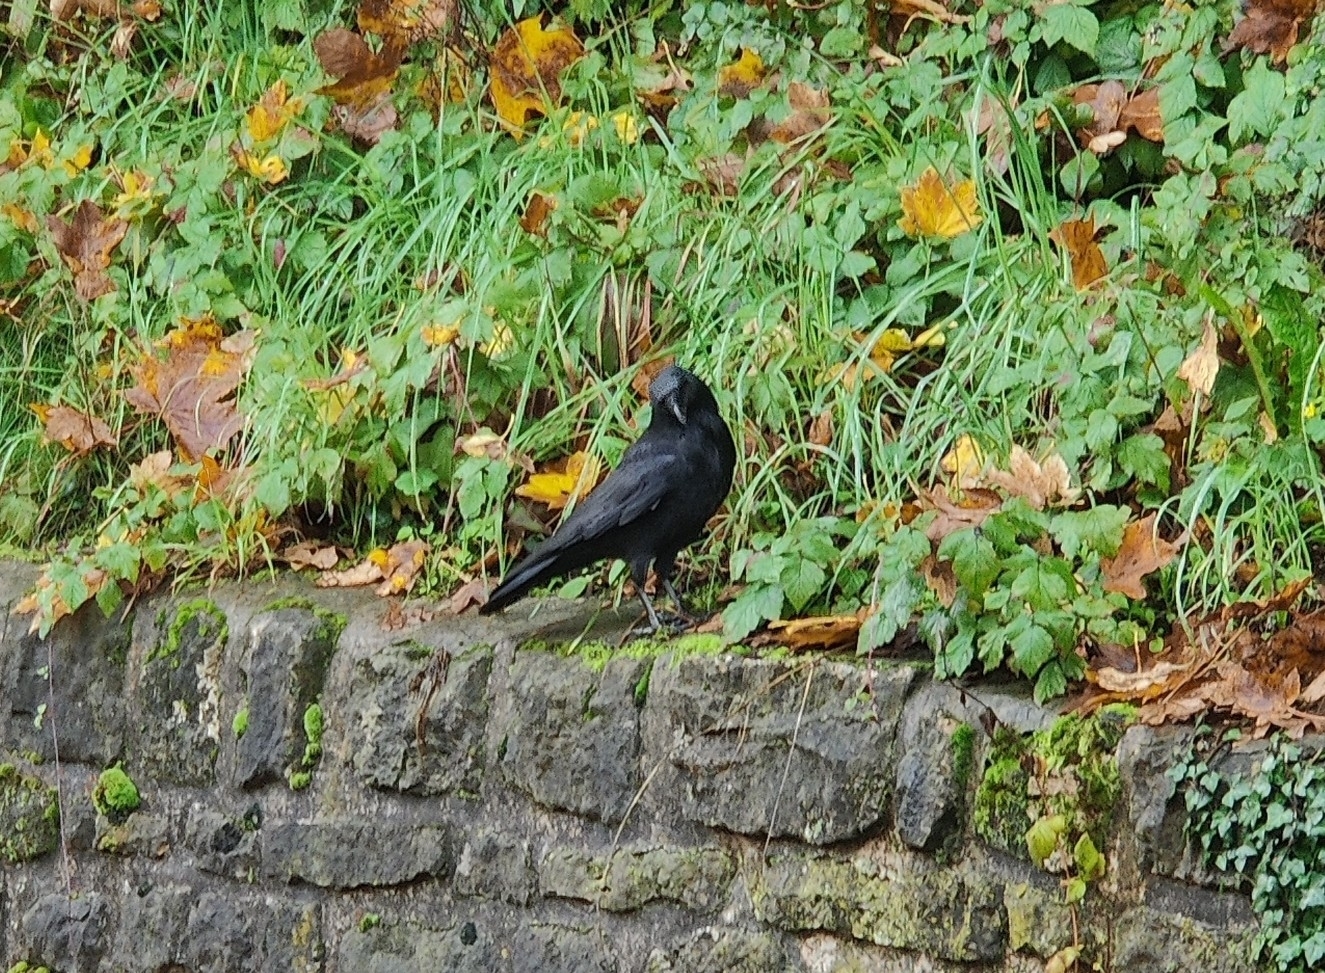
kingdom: Animalia
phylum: Chordata
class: Aves
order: Passeriformes
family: Corvidae
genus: Corvus
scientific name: Corvus corone
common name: Carrion crow
